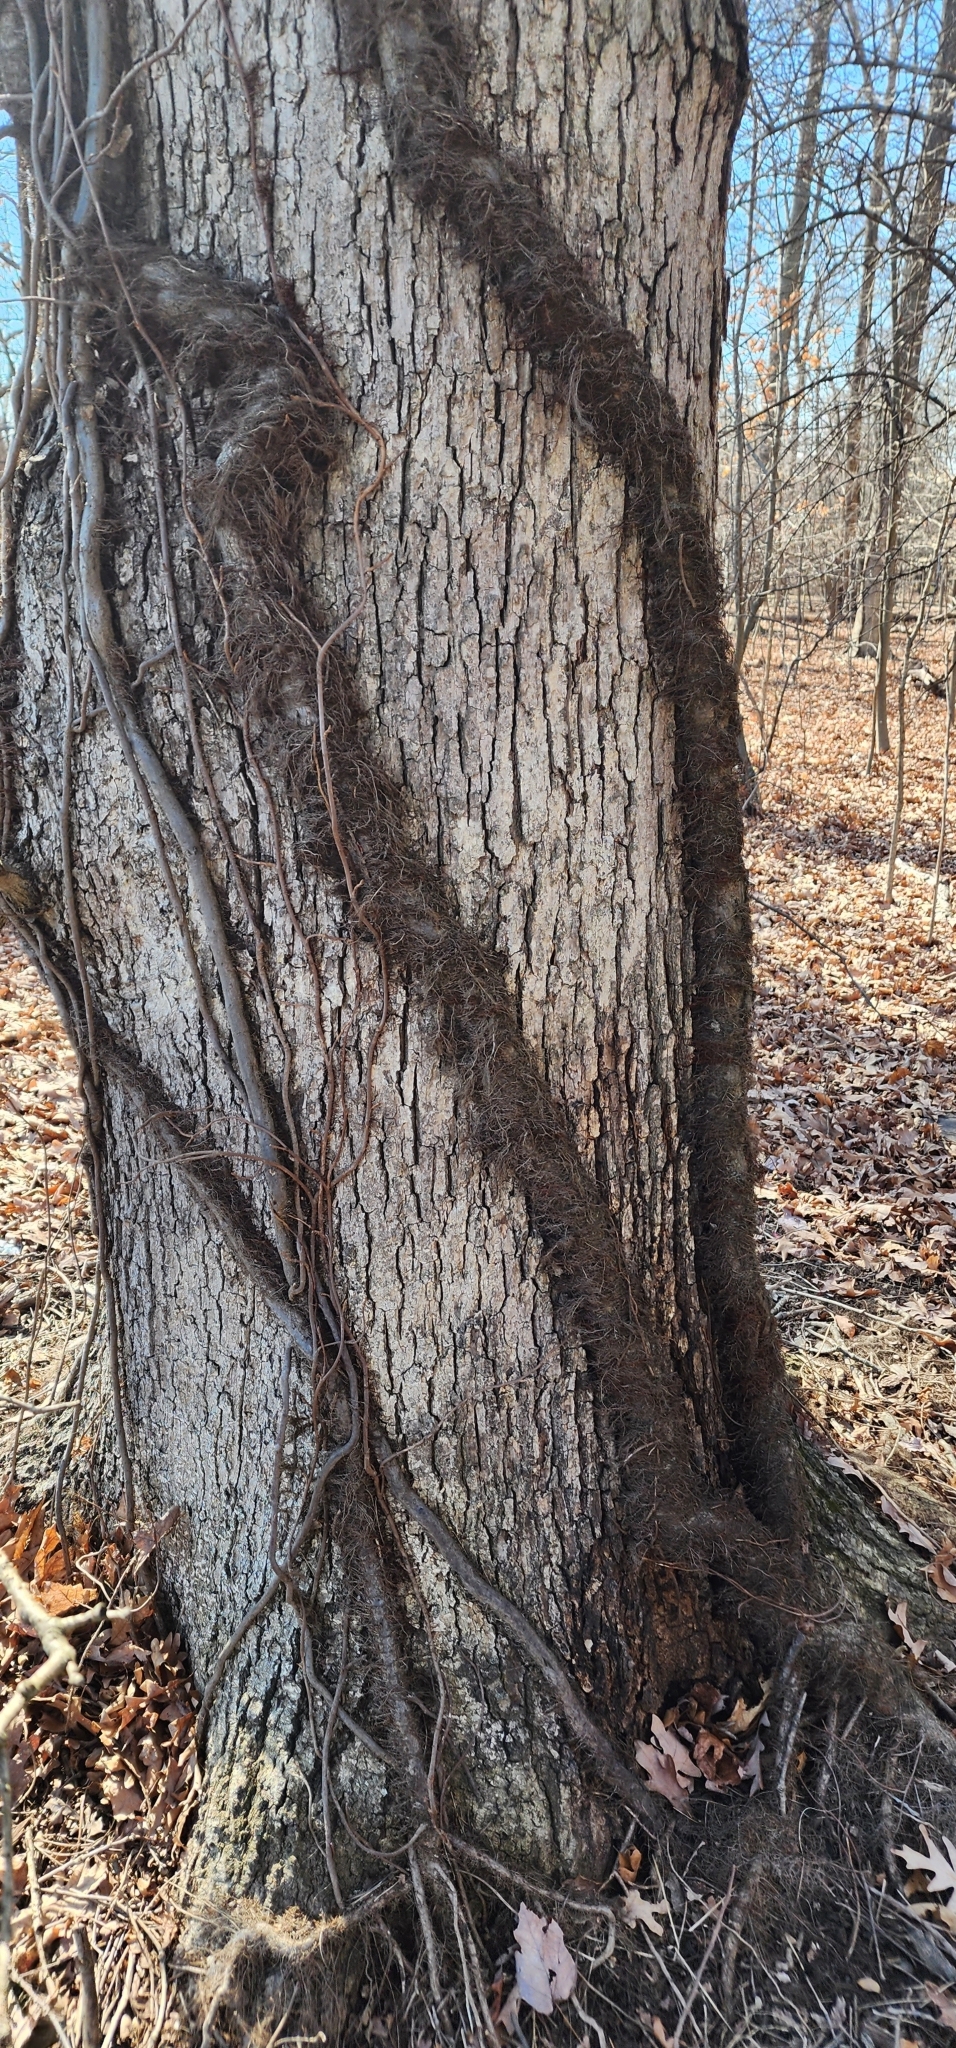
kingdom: Plantae
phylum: Tracheophyta
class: Magnoliopsida
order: Sapindales
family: Anacardiaceae
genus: Toxicodendron
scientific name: Toxicodendron radicans
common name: Poison ivy
